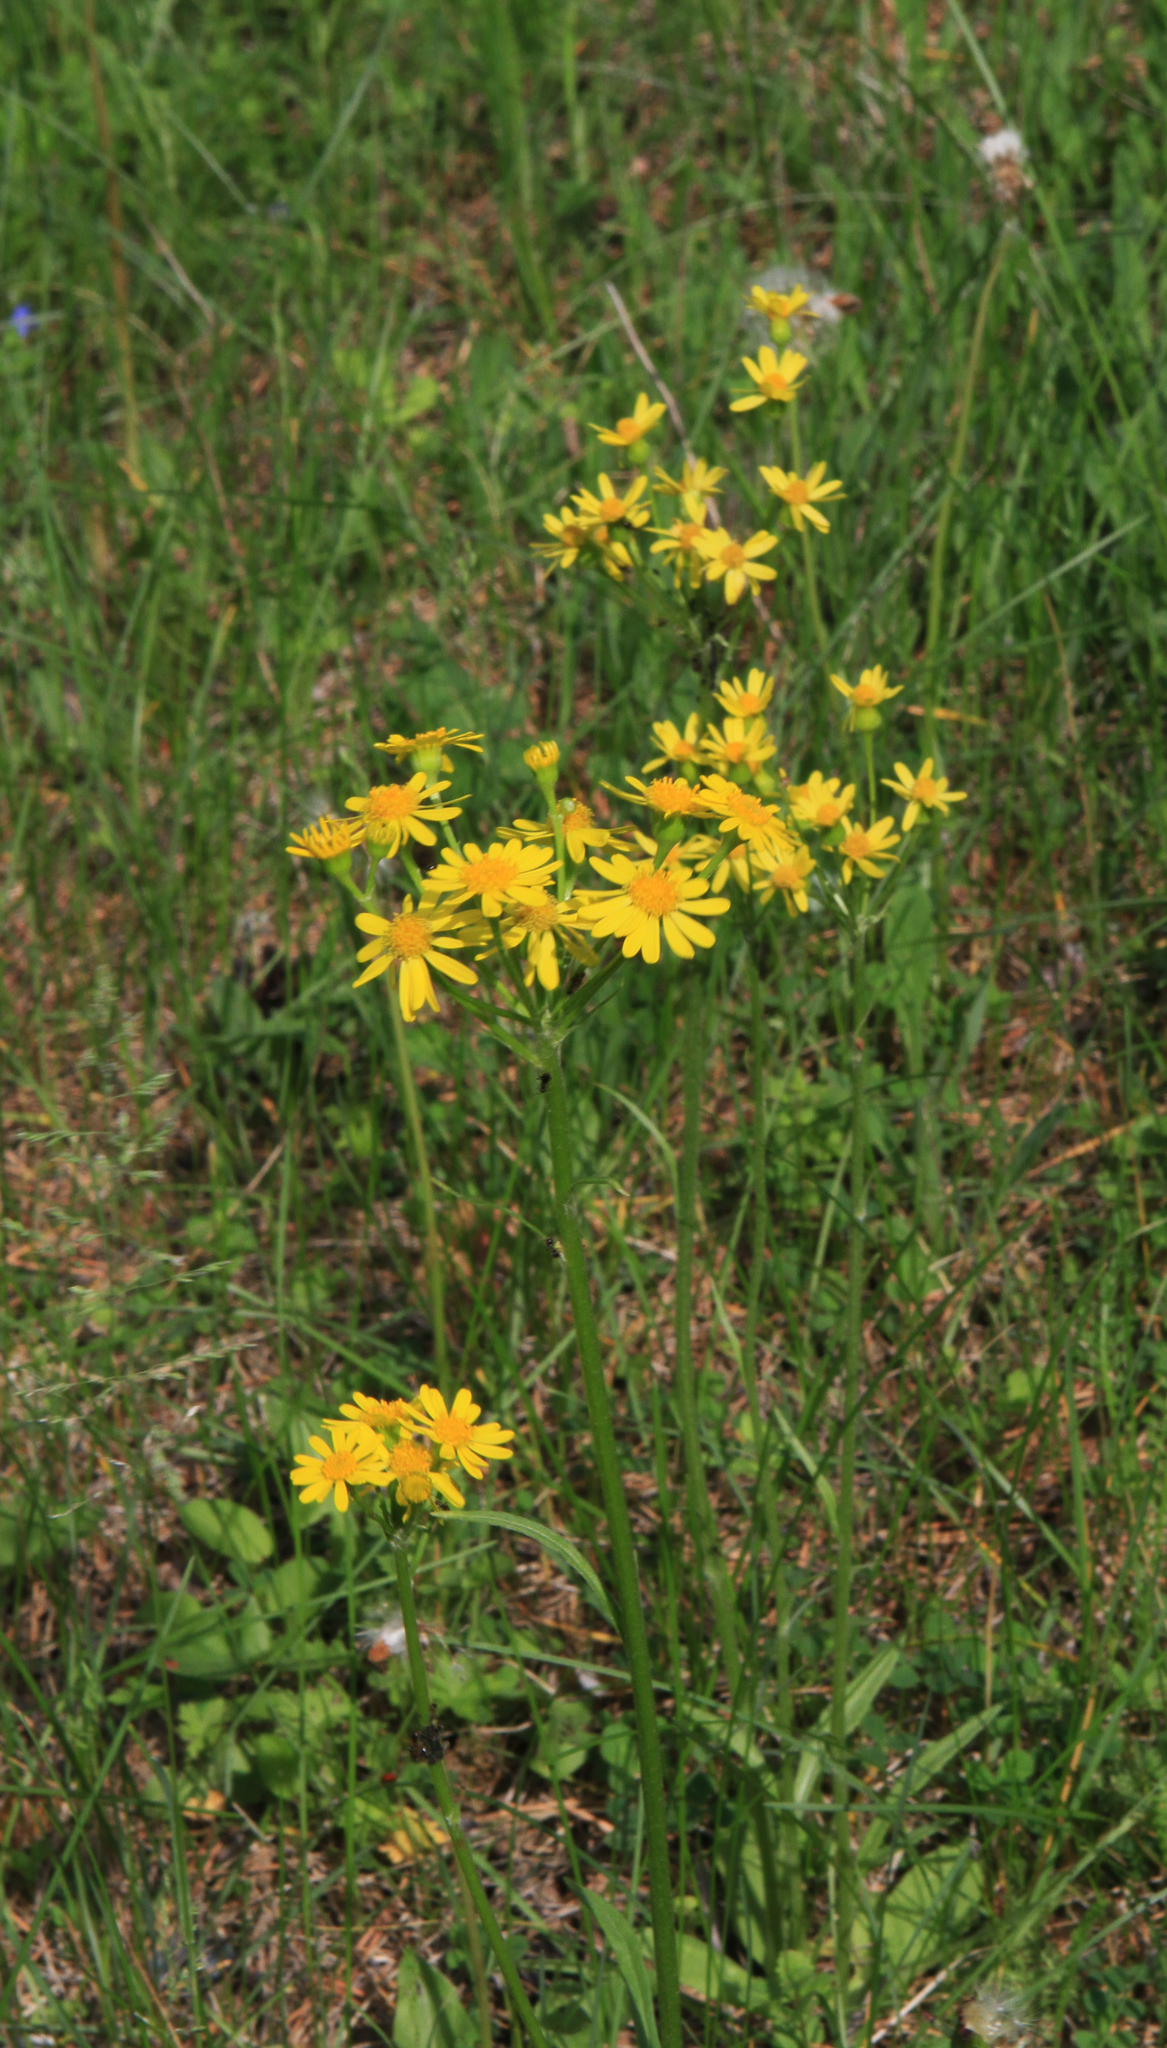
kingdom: Plantae
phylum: Tracheophyta
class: Magnoliopsida
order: Asterales
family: Asteraceae
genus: Tephroseris
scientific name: Tephroseris integrifolia
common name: Field fleawort
